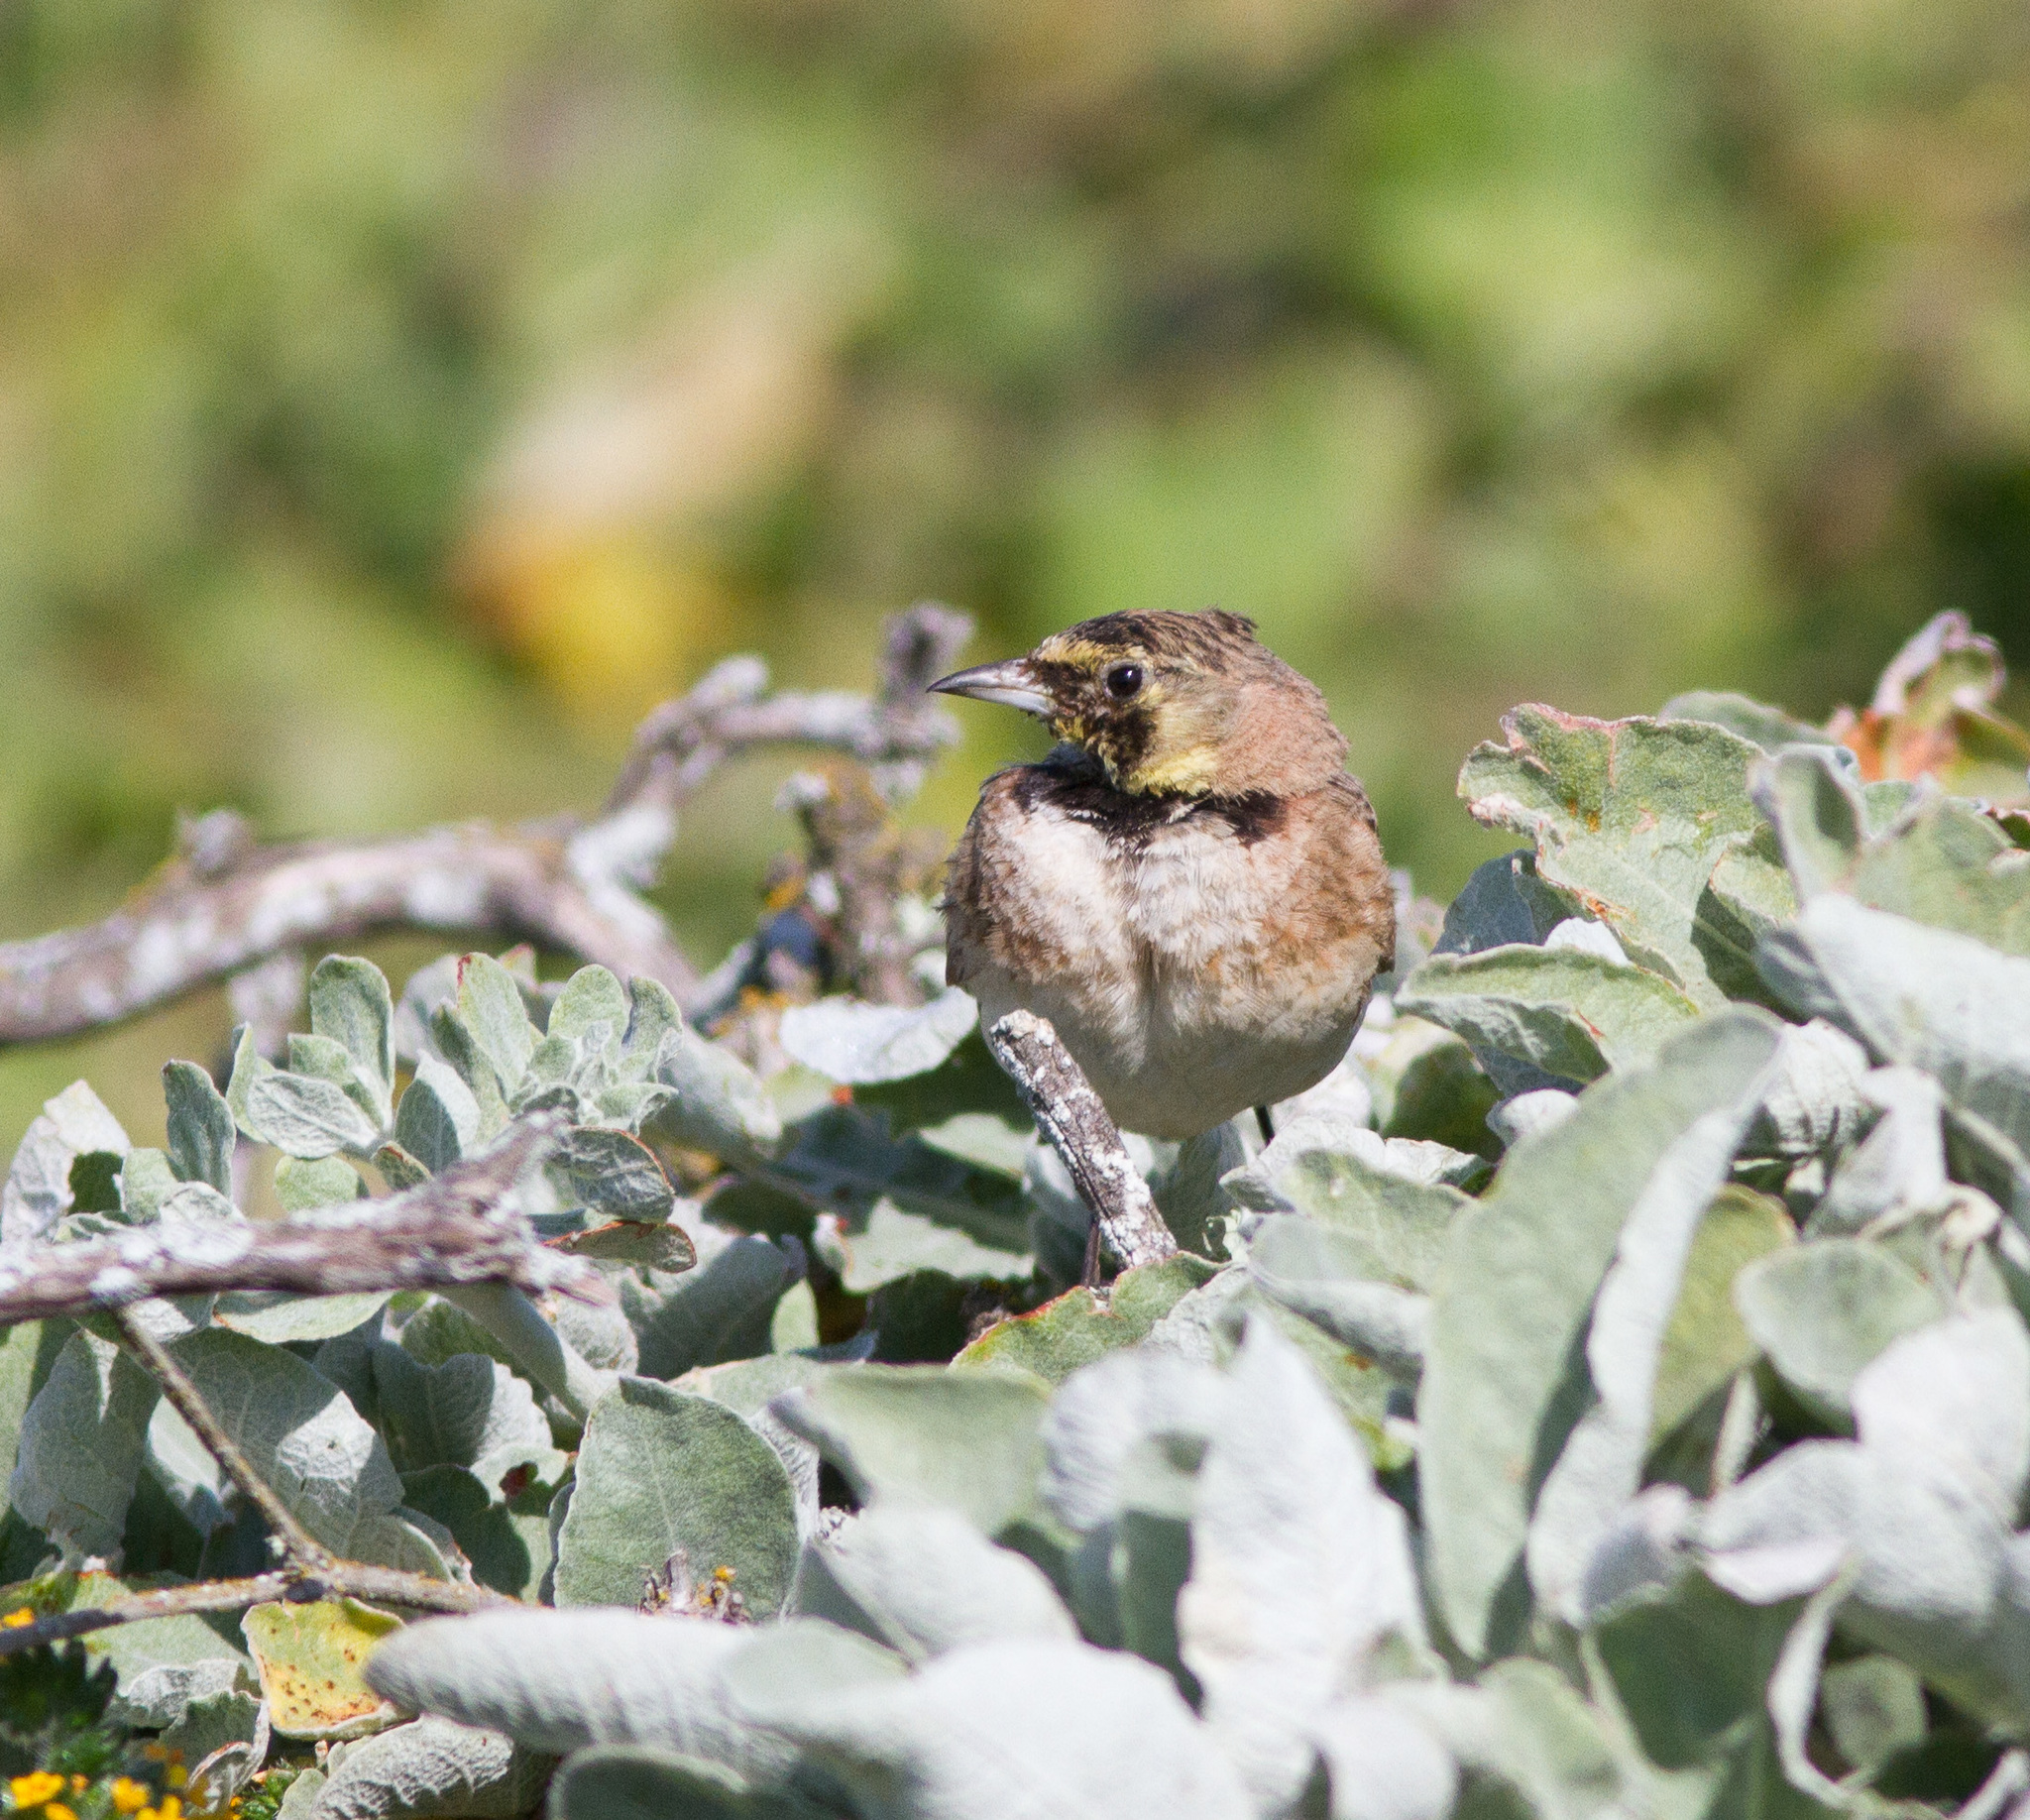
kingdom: Animalia
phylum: Chordata
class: Aves
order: Passeriformes
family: Alaudidae
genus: Eremophila
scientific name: Eremophila alpestris
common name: Horned lark
